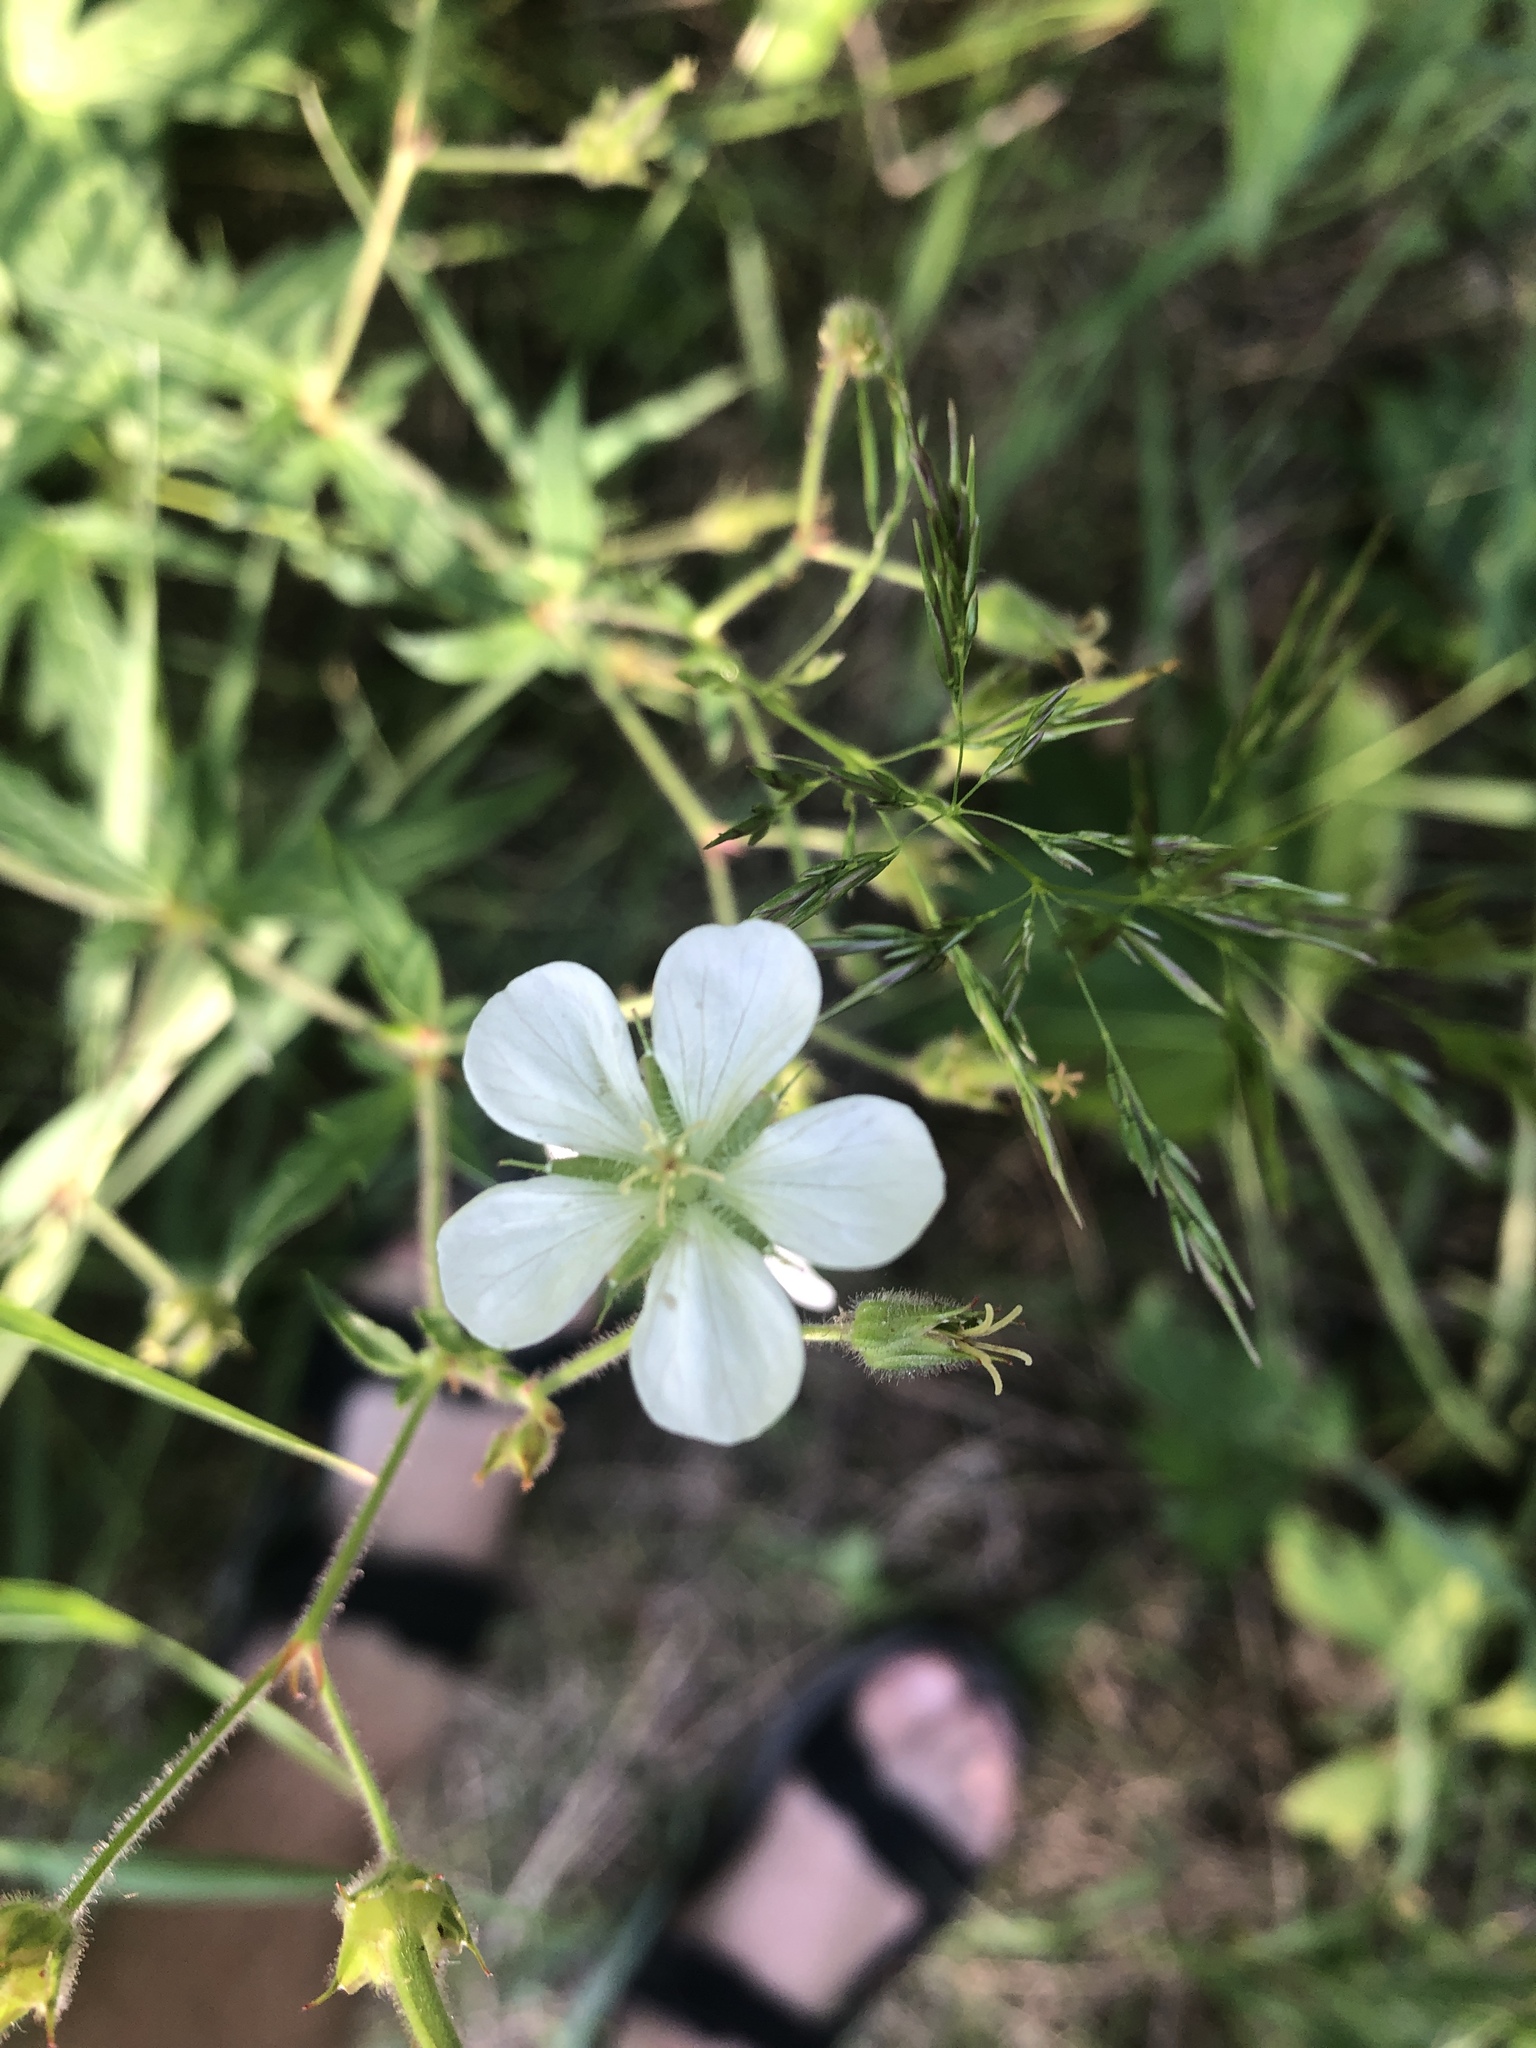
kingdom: Plantae
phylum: Tracheophyta
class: Magnoliopsida
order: Geraniales
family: Geraniaceae
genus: Geranium
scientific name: Geranium richardsonii
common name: Richardson's crane's-bill
